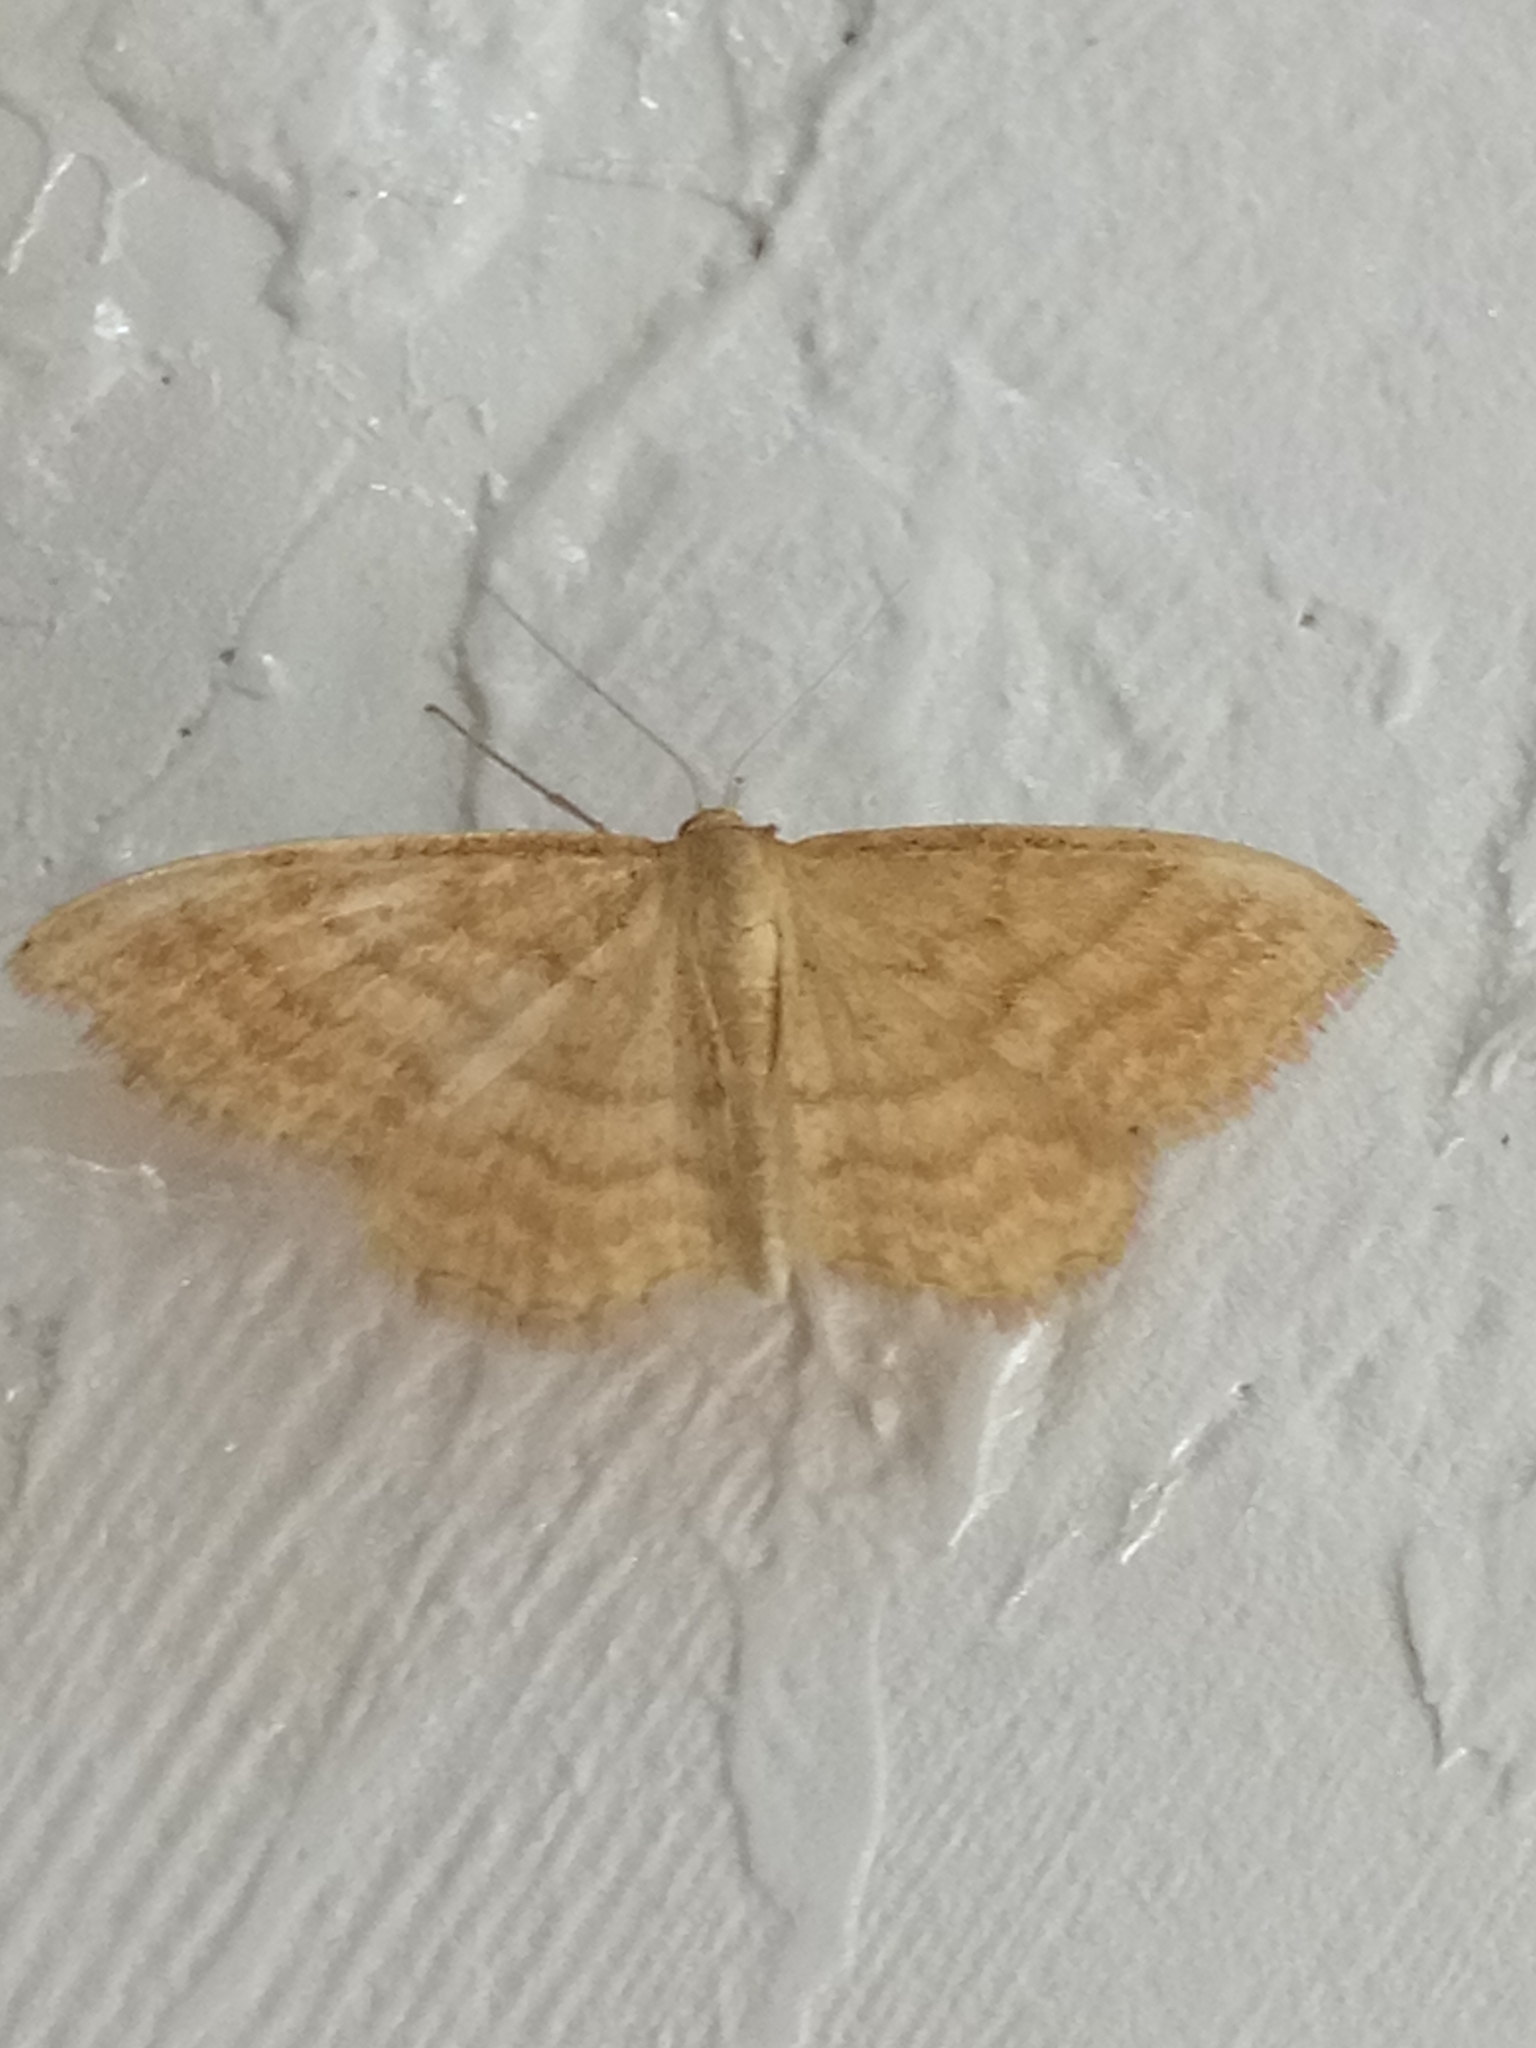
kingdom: Animalia
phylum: Arthropoda
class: Insecta
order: Lepidoptera
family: Geometridae
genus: Idaea
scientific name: Idaea ochrata
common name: Bright wave
